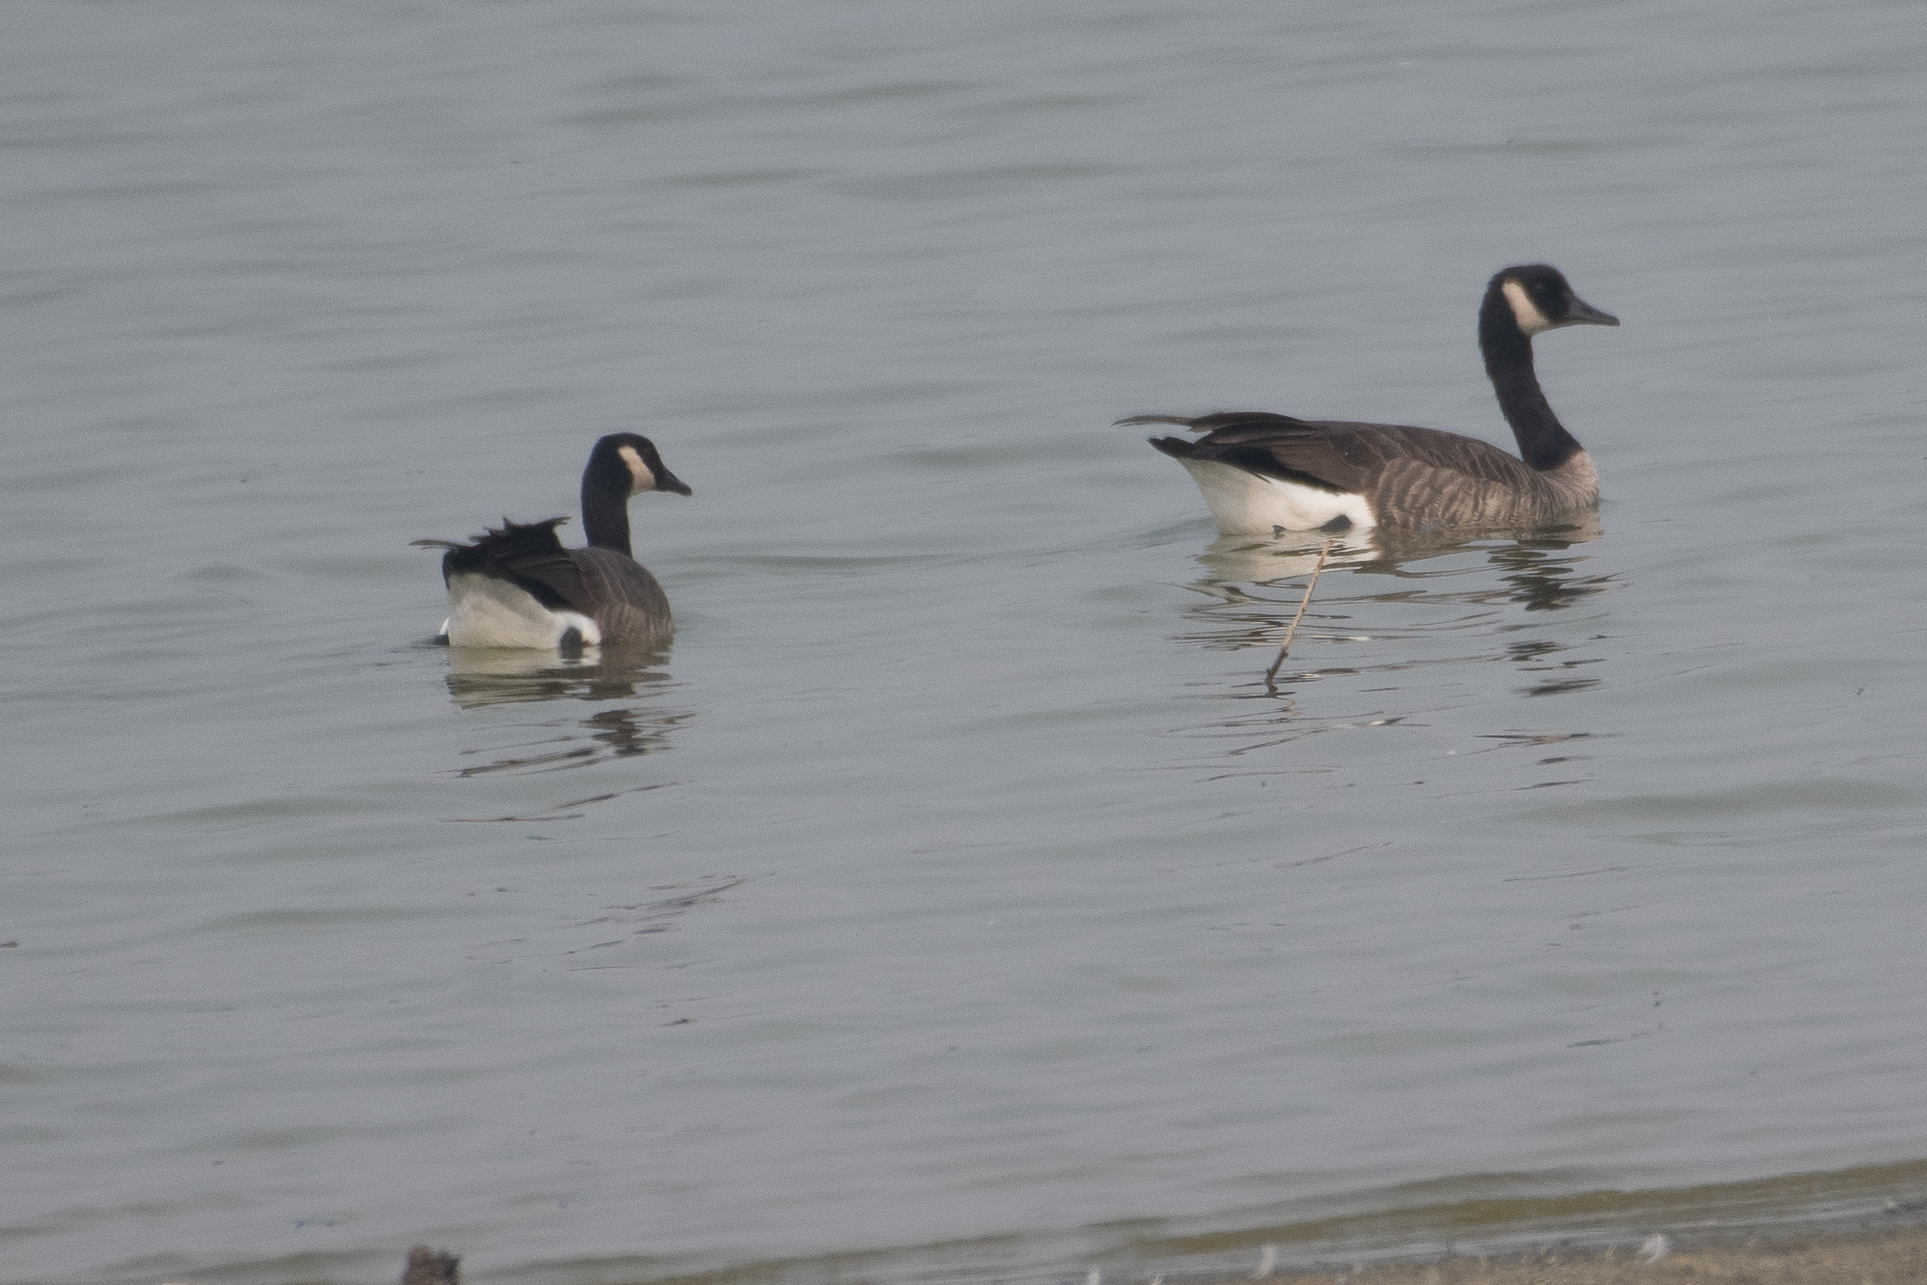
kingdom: Animalia
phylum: Chordata
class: Aves
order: Anseriformes
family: Anatidae
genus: Branta
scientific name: Branta canadensis
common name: Canada goose
